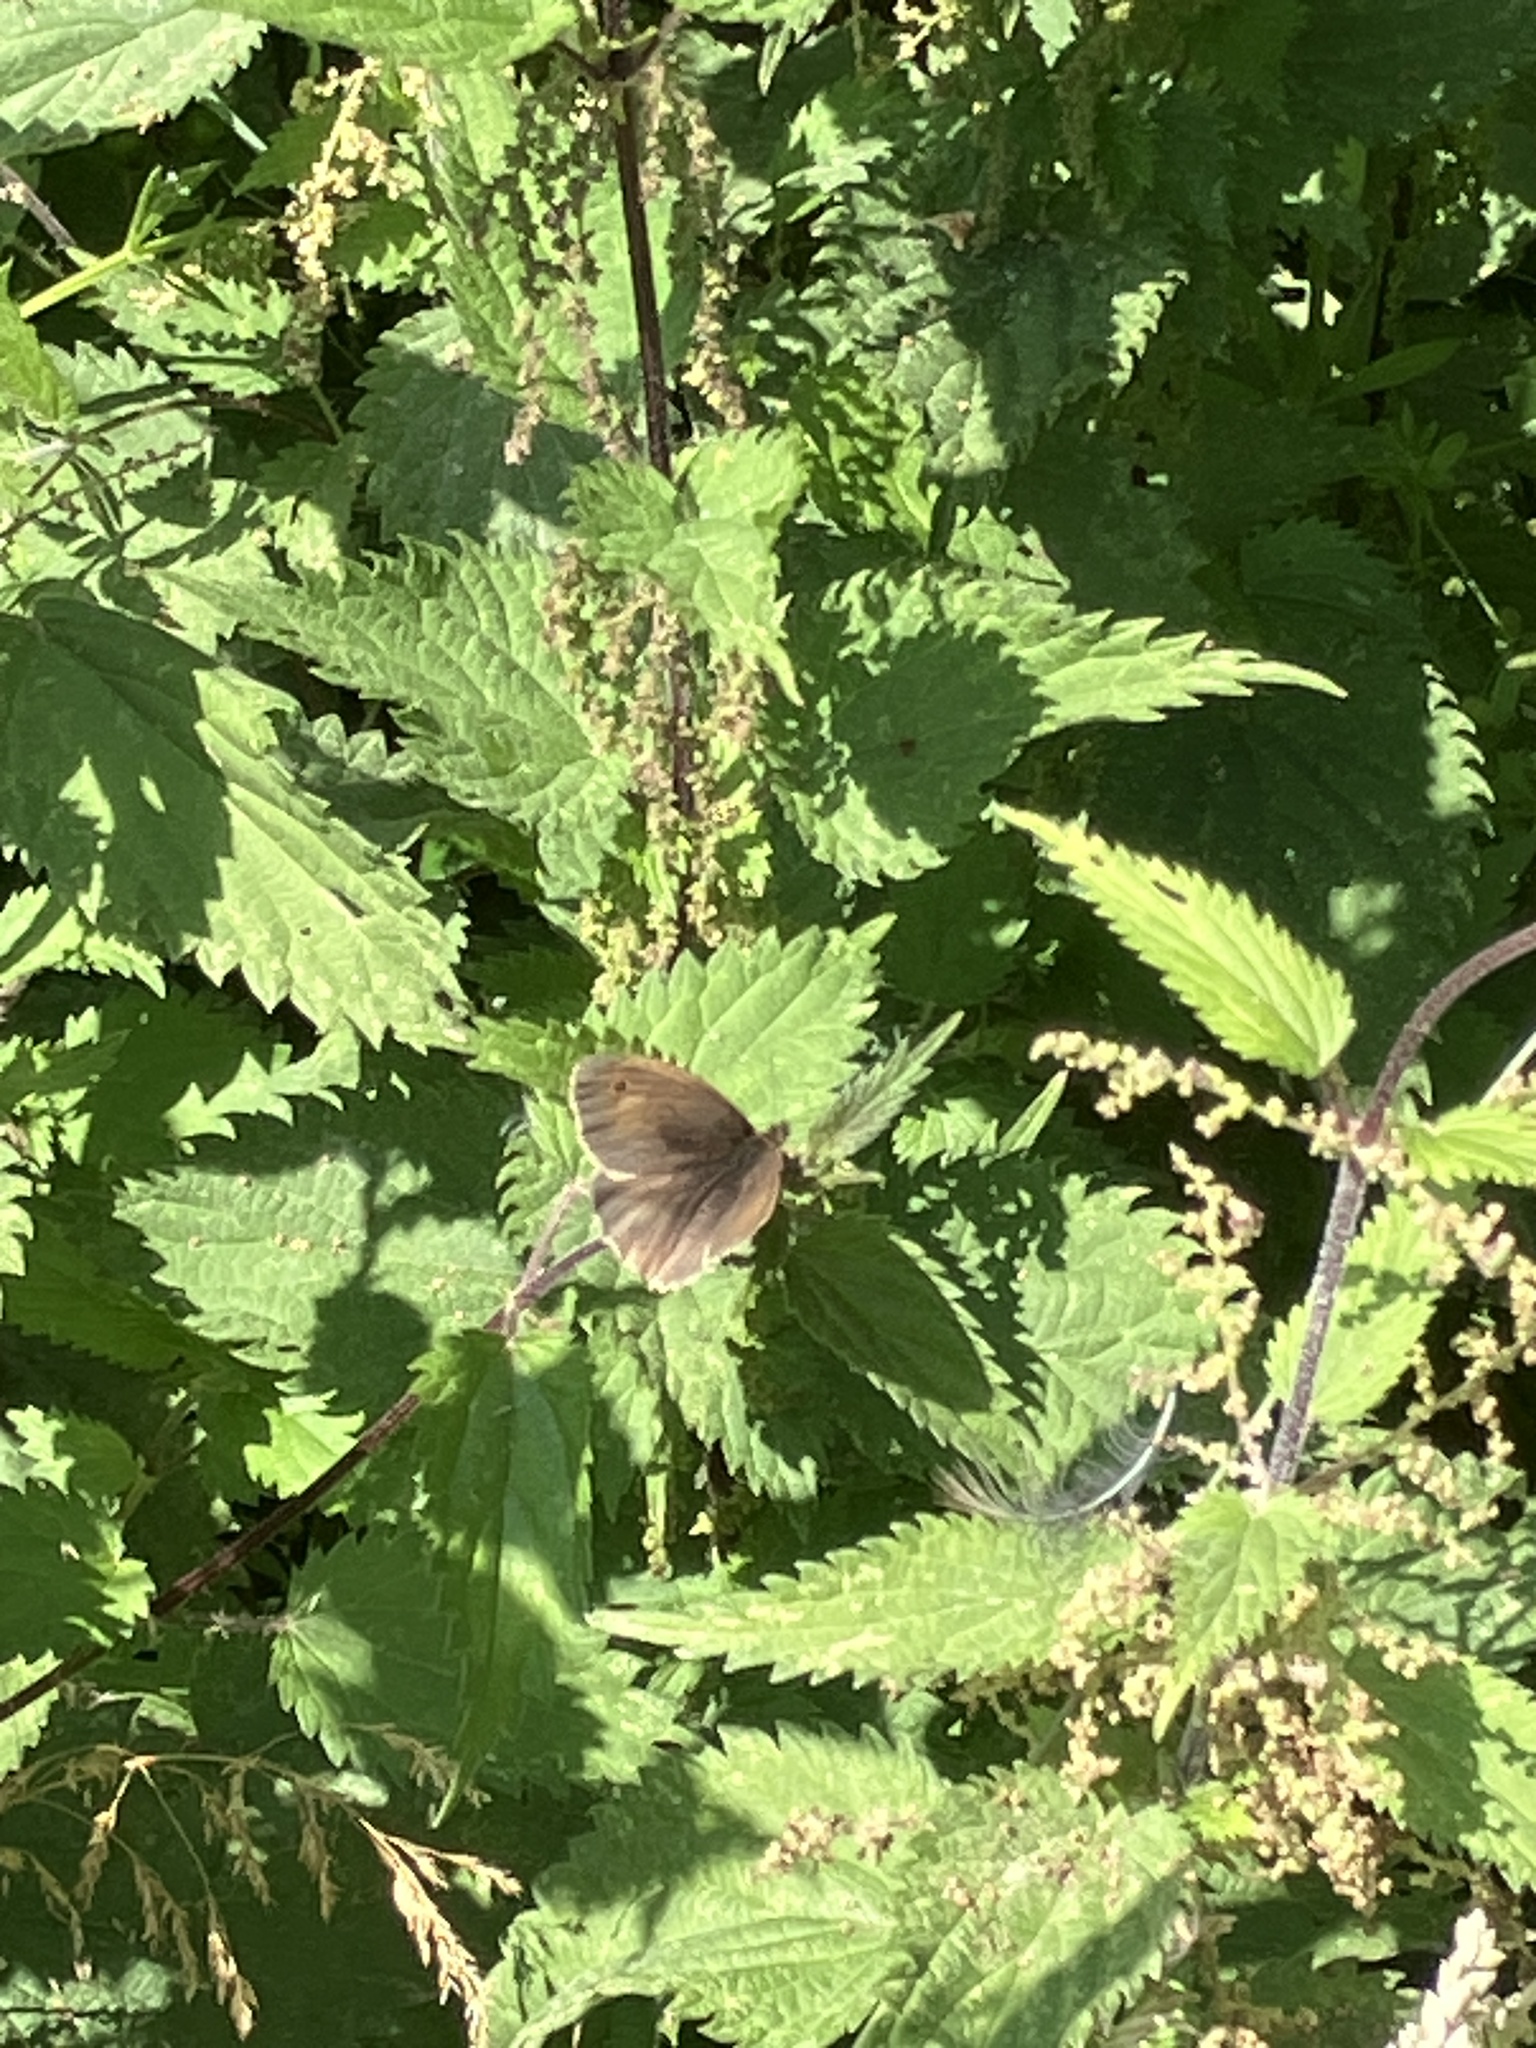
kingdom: Animalia
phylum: Arthropoda
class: Insecta
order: Lepidoptera
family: Nymphalidae
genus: Maniola
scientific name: Maniola jurtina
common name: Meadow brown
